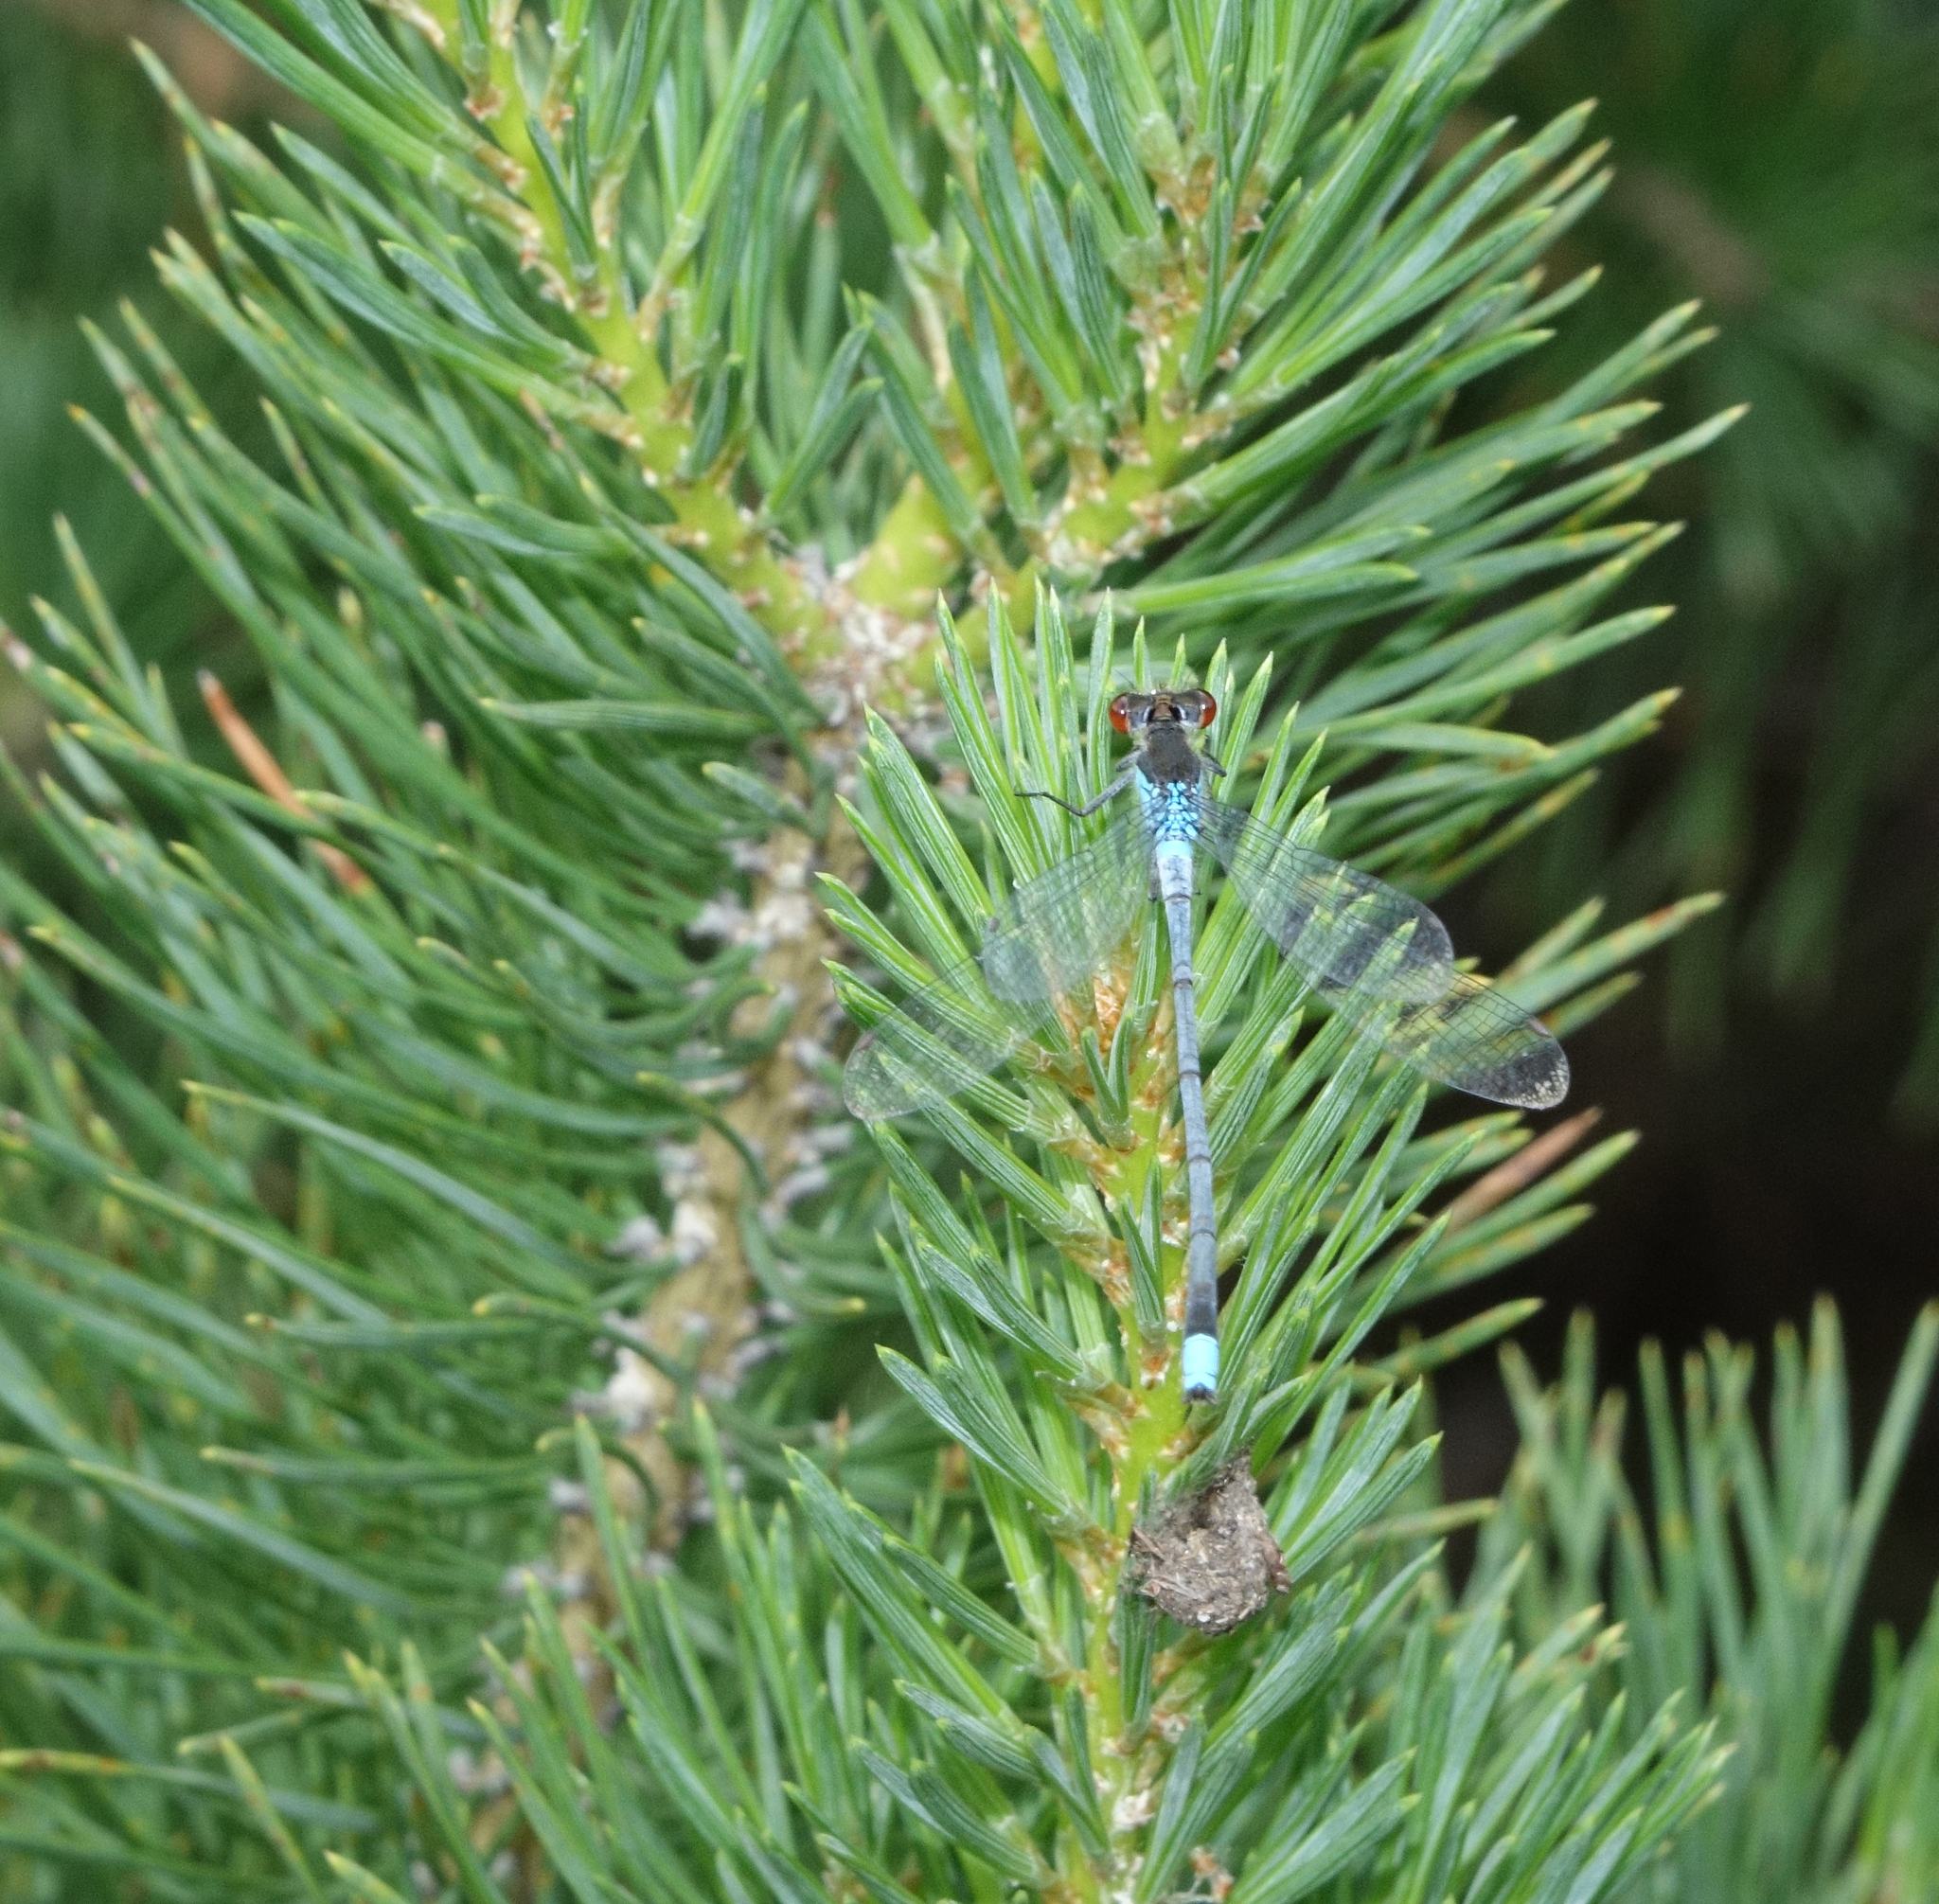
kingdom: Animalia
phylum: Arthropoda
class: Insecta
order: Odonata
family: Coenagrionidae
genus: Erythromma
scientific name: Erythromma najas
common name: Red-eyed damselfly
